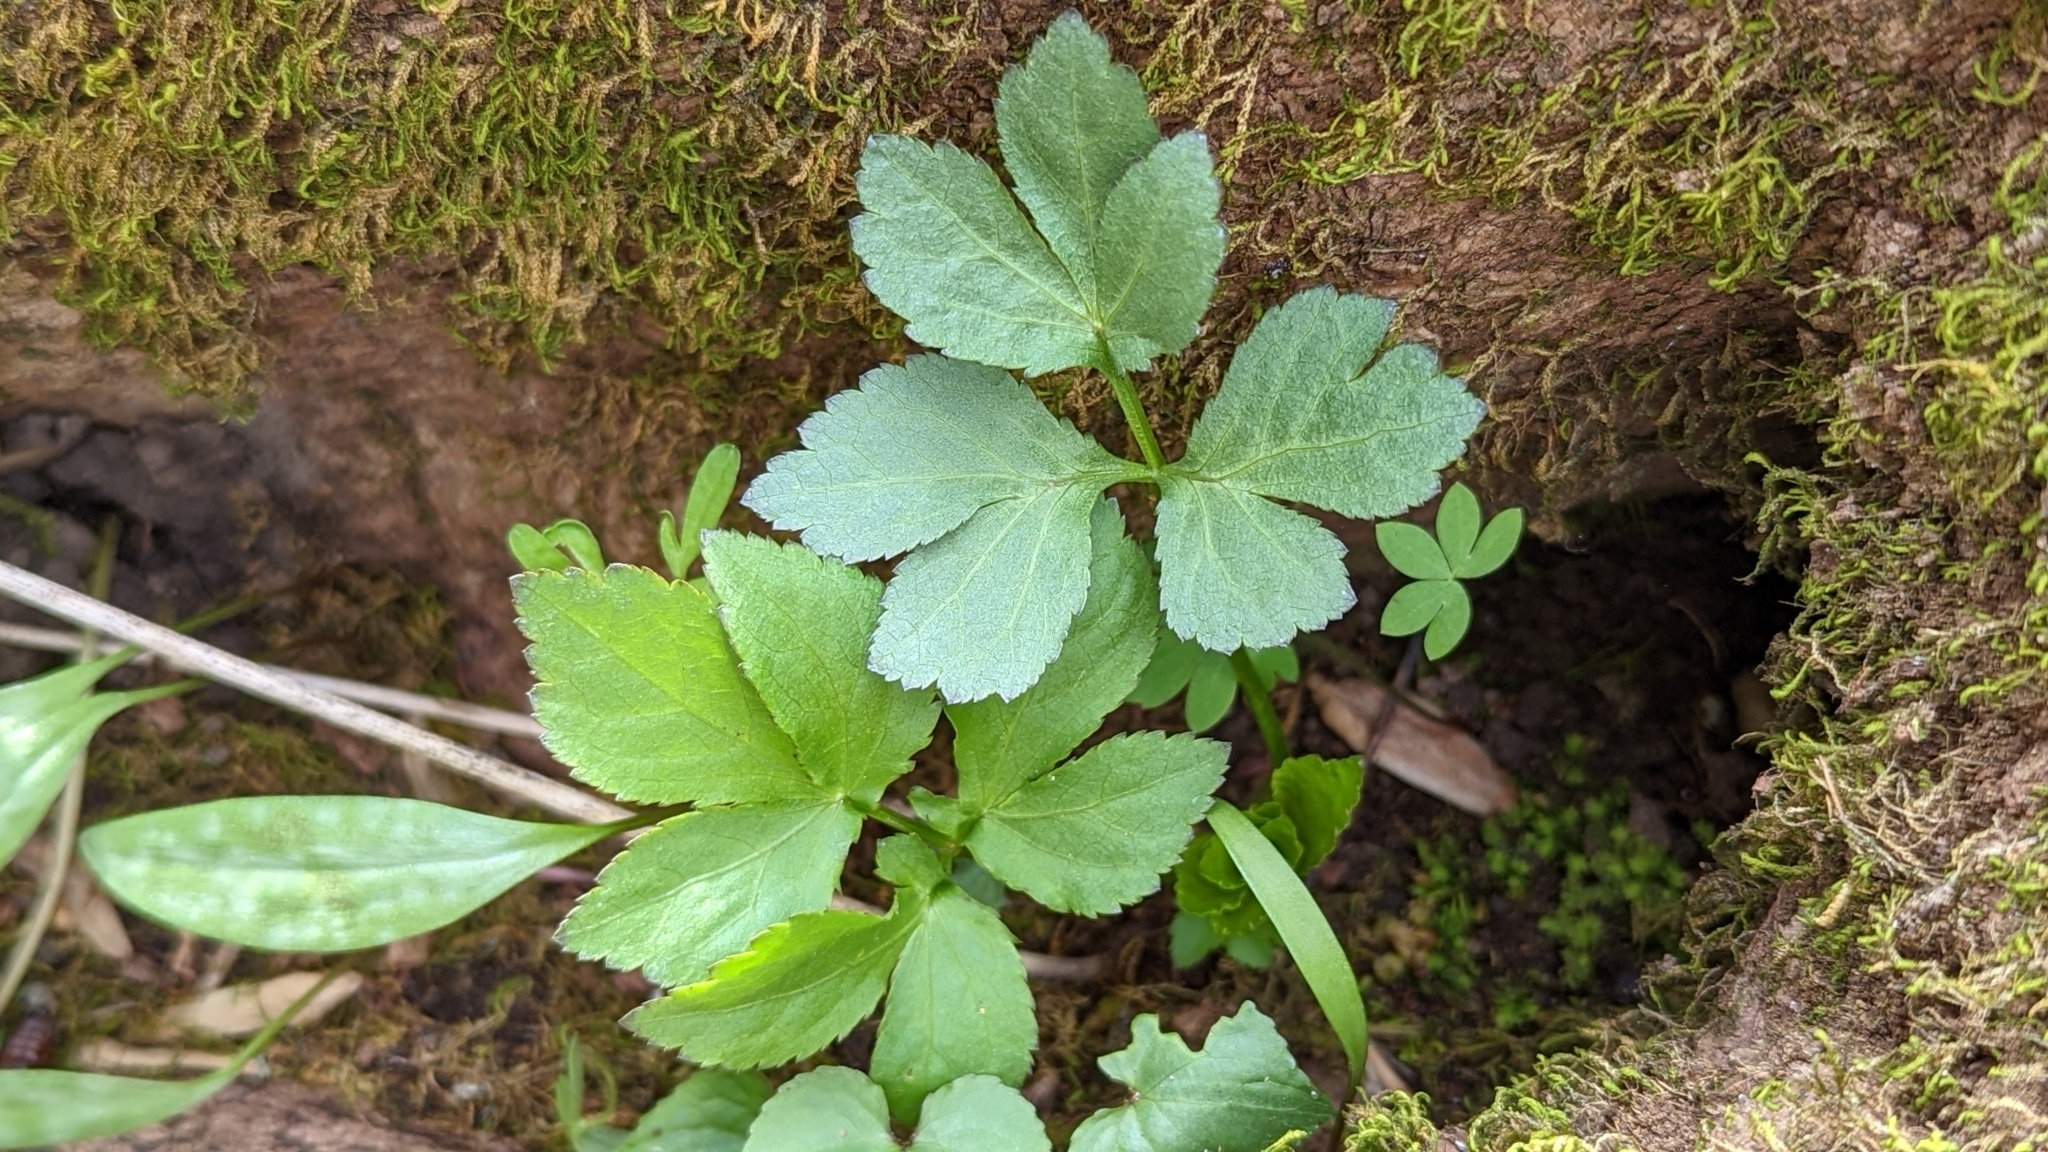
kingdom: Plantae
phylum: Tracheophyta
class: Magnoliopsida
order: Apiales
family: Apiaceae
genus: Cryptotaenia
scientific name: Cryptotaenia canadensis
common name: Honewort
